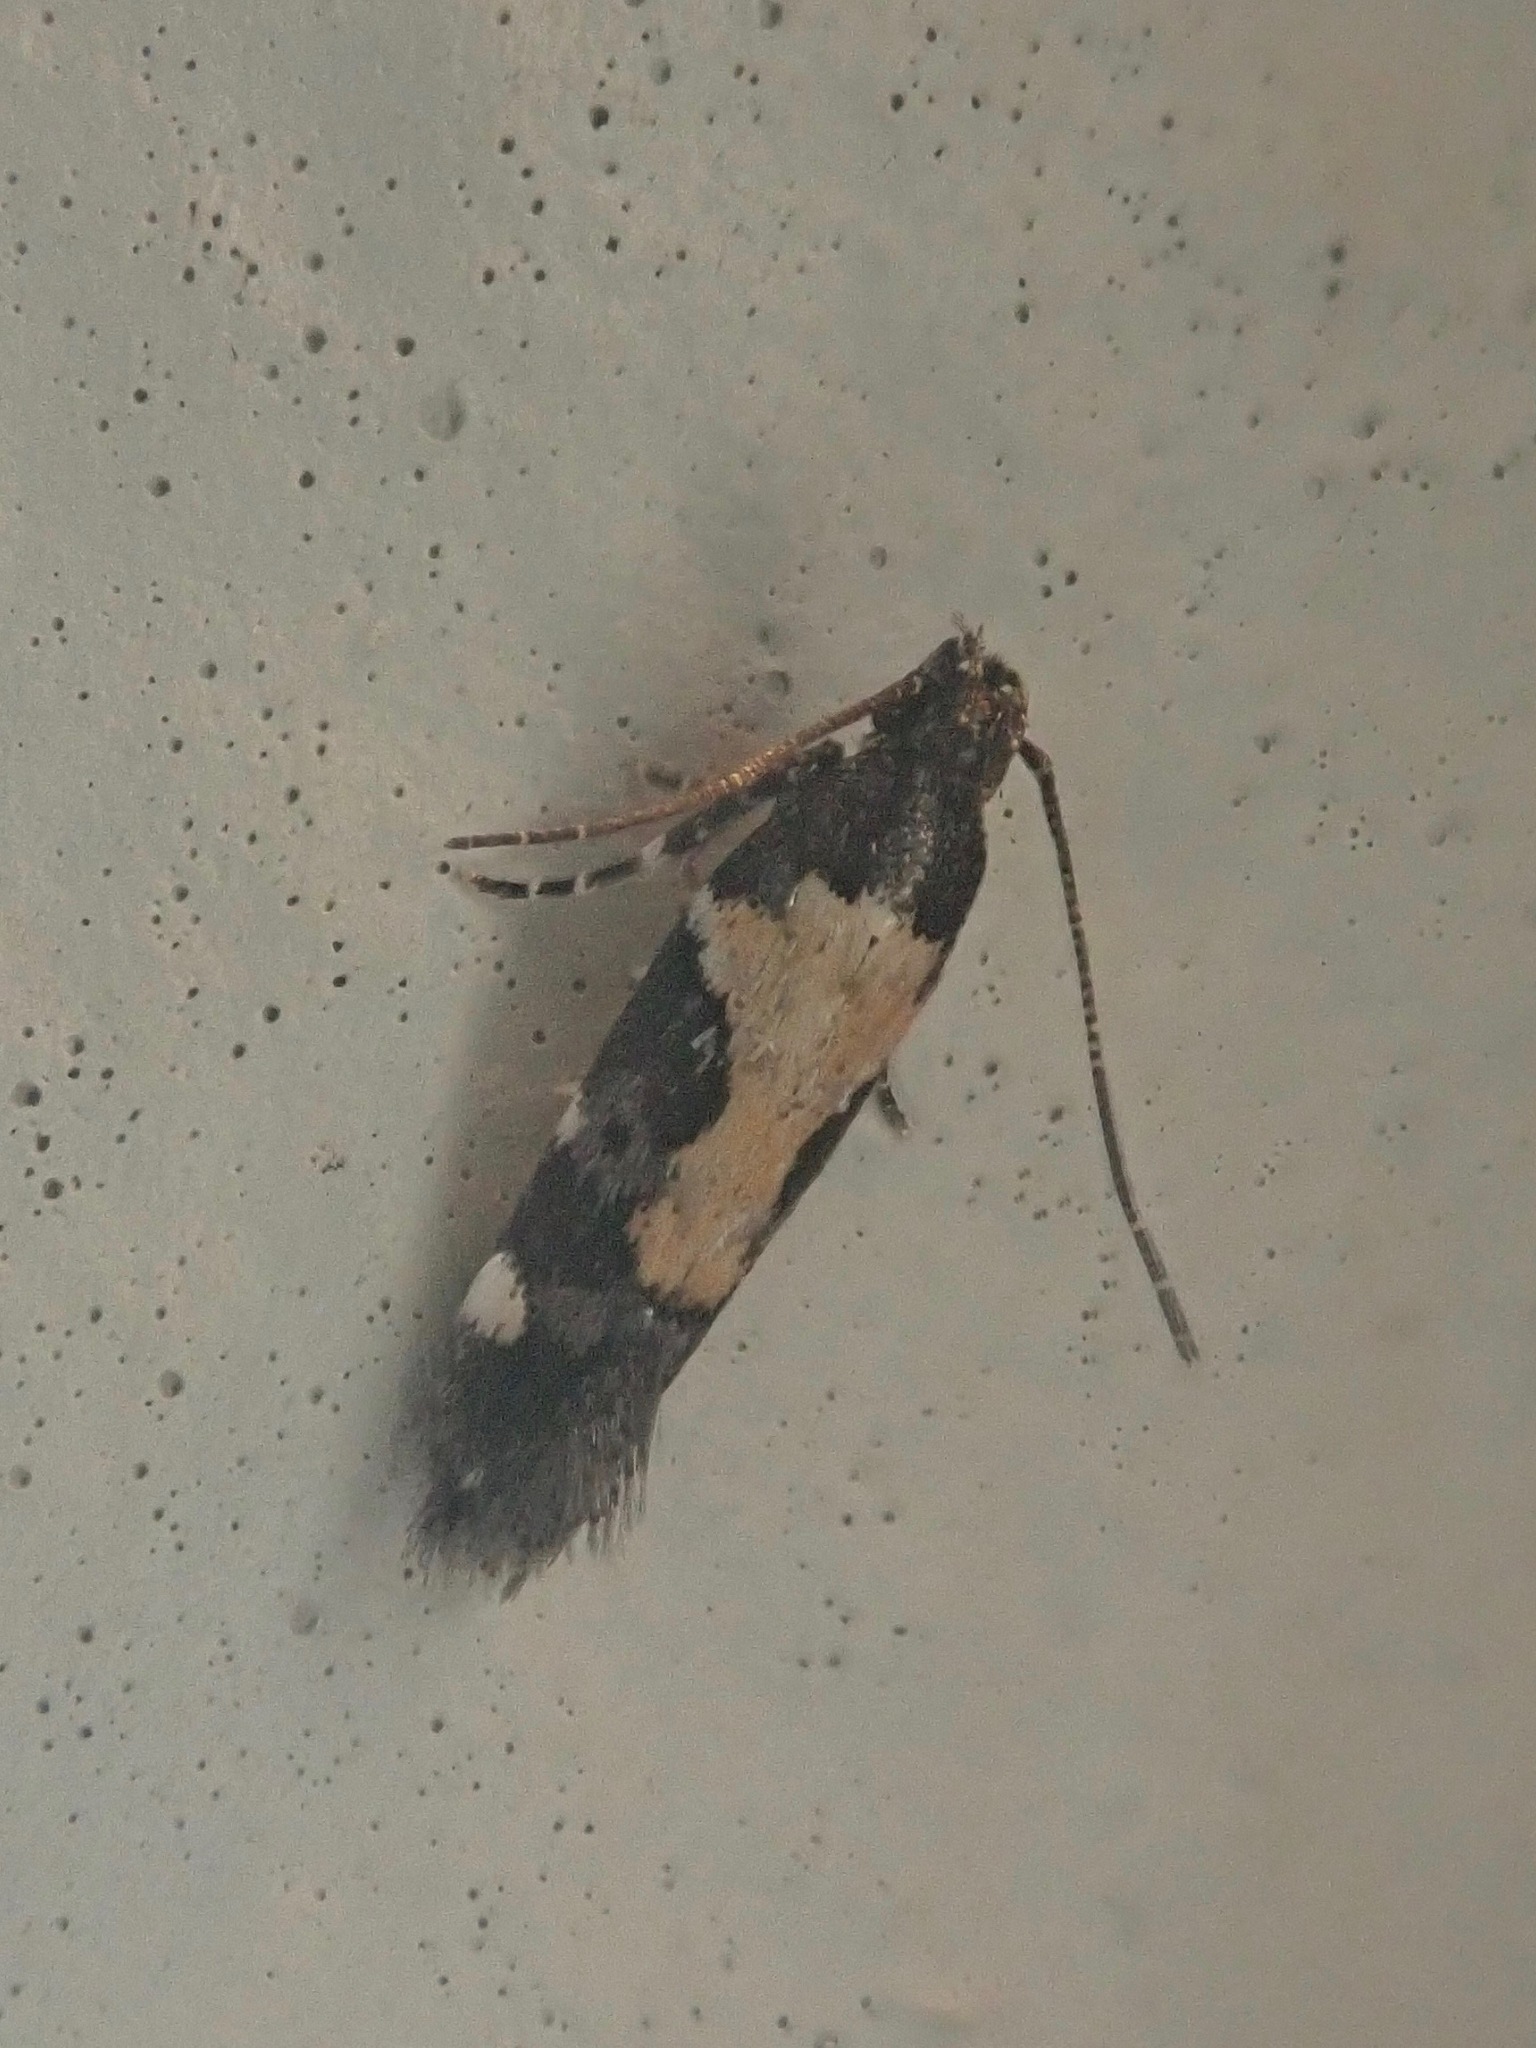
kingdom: Animalia
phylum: Arthropoda
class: Insecta
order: Lepidoptera
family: Gelechiidae
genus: Stegasta
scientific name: Stegasta bosqueella
